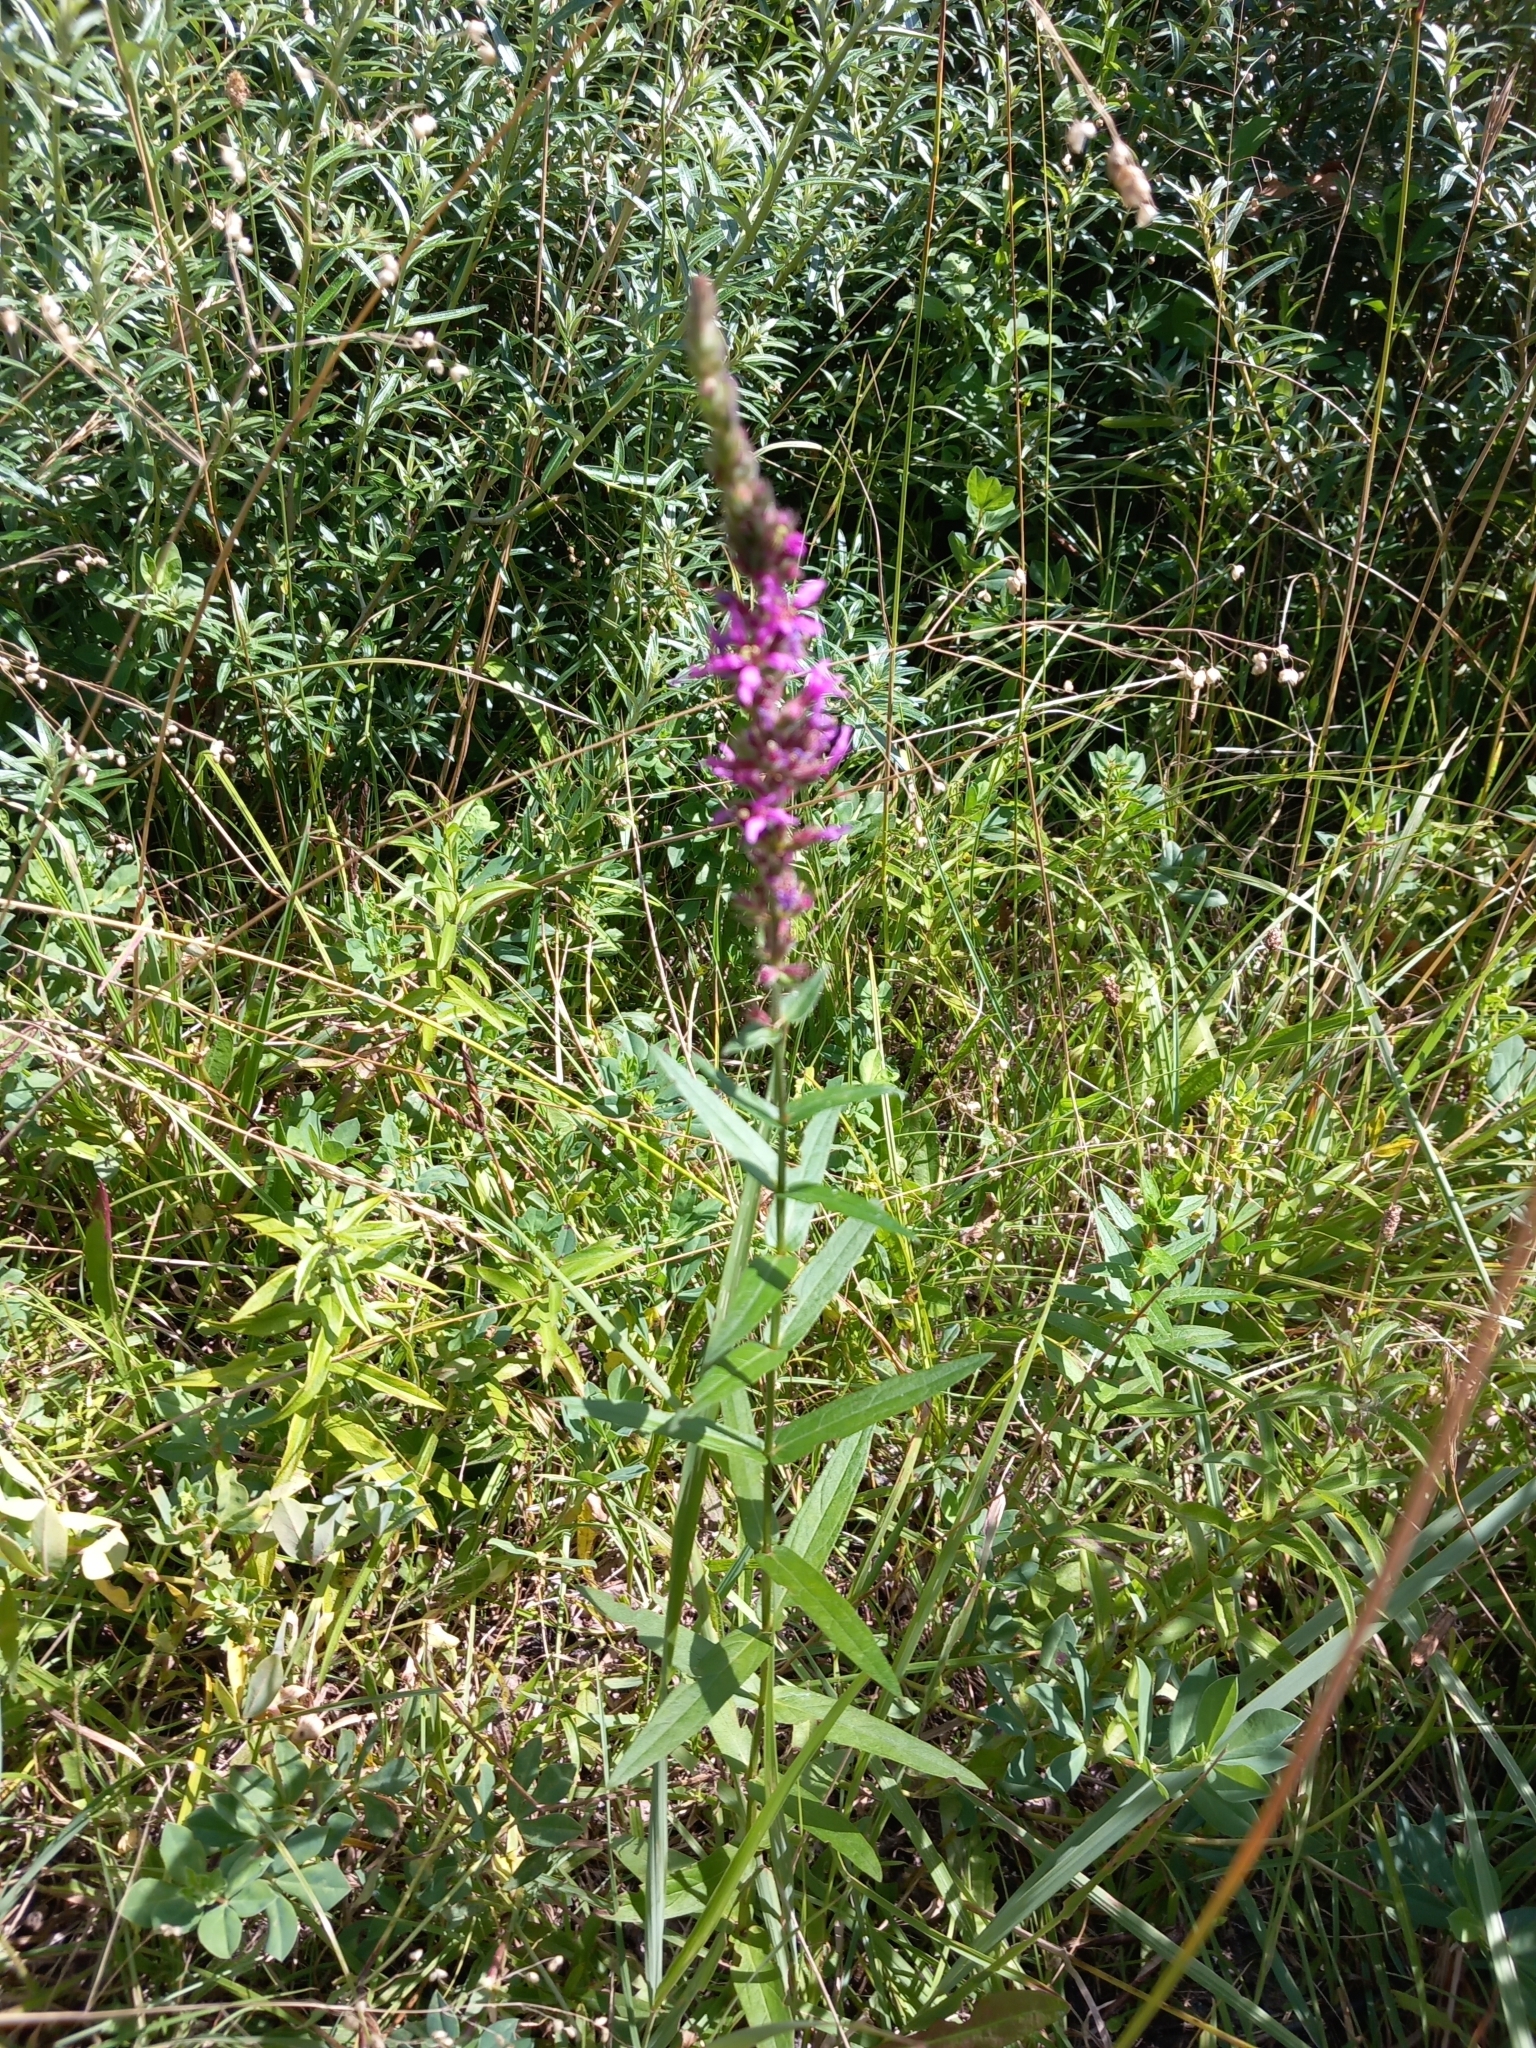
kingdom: Plantae
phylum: Tracheophyta
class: Magnoliopsida
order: Myrtales
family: Lythraceae
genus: Lythrum
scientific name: Lythrum salicaria
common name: Purple loosestrife
